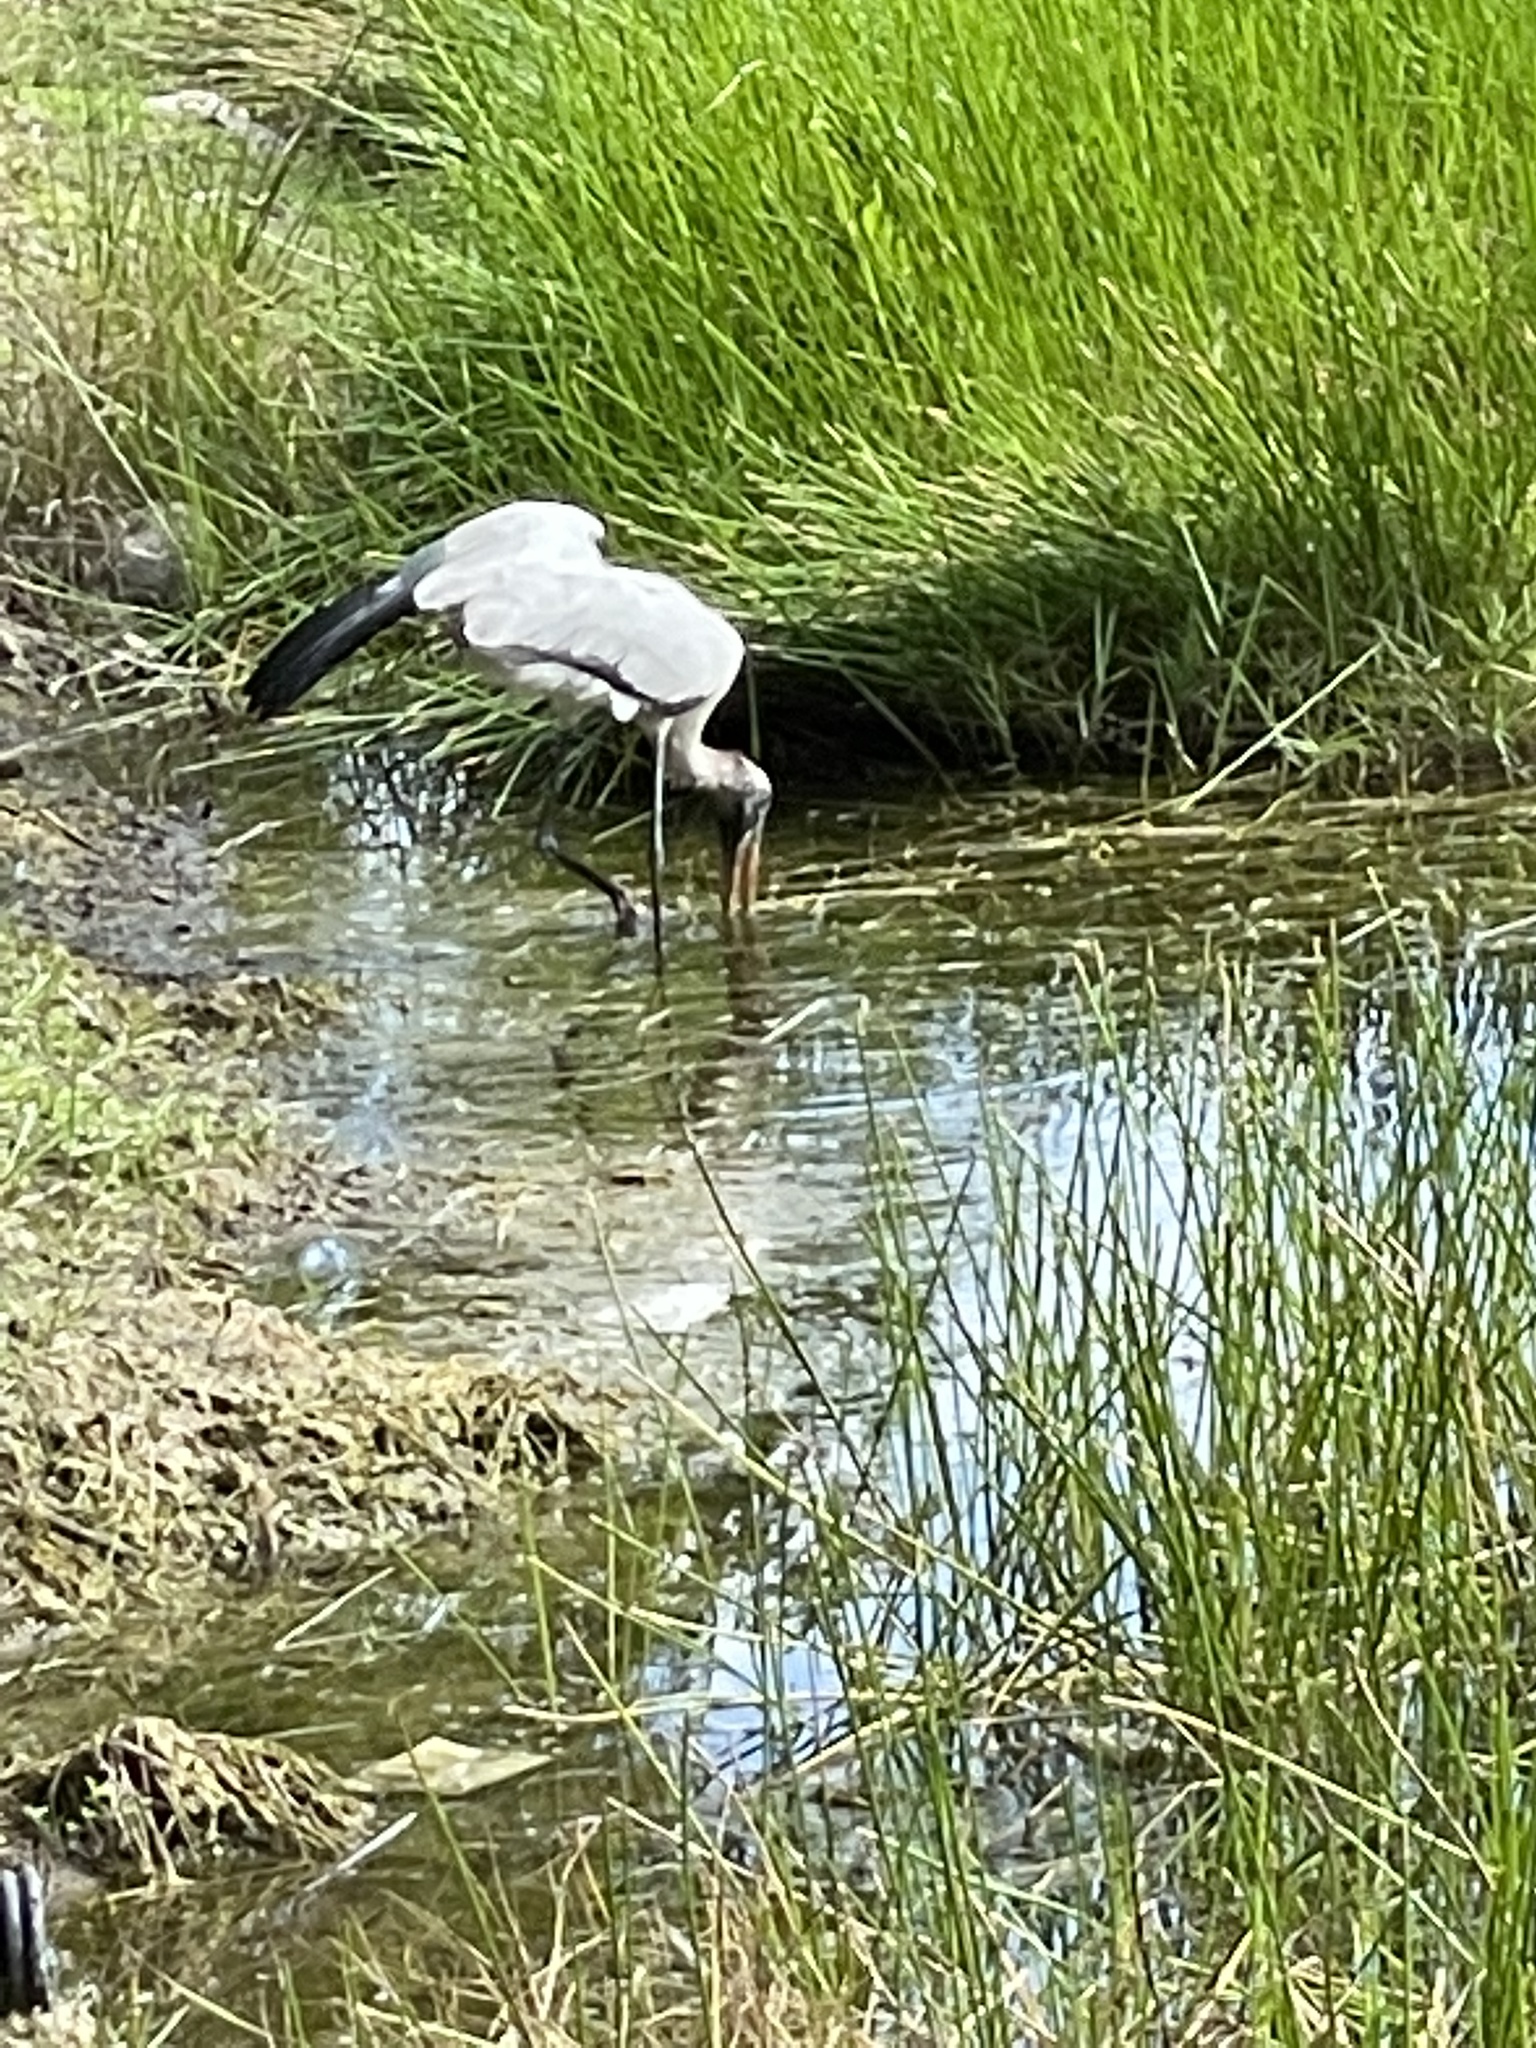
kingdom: Animalia
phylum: Chordata
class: Aves
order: Ciconiiformes
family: Ciconiidae
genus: Mycteria
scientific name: Mycteria americana
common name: Wood stork
